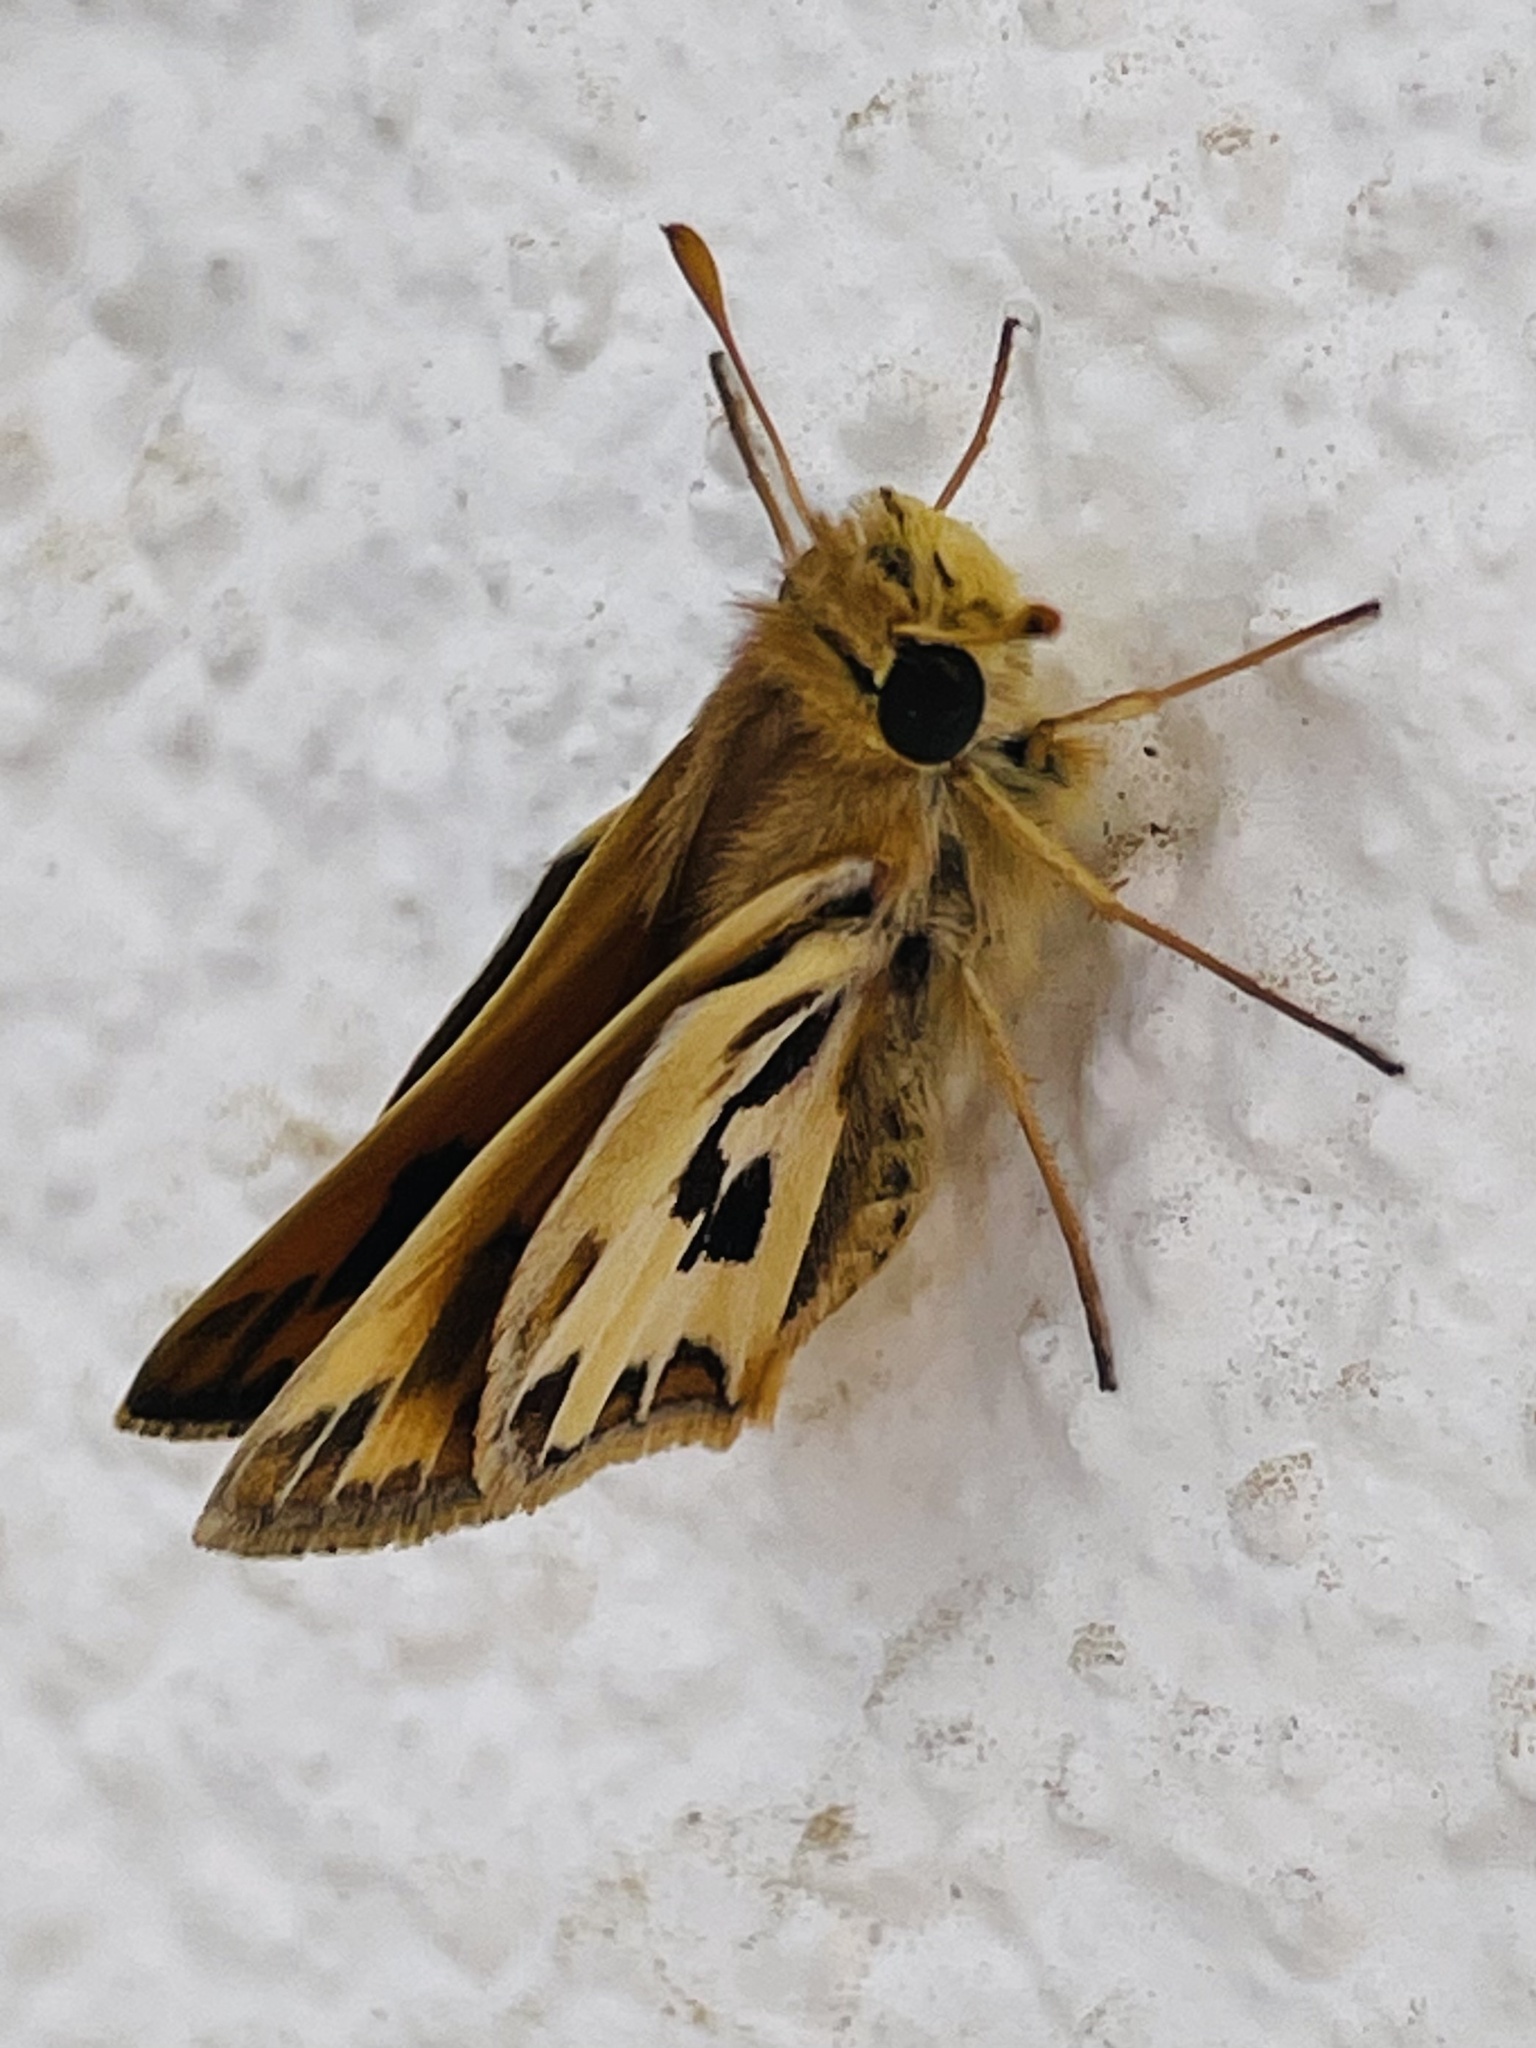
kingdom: Animalia
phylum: Arthropoda
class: Insecta
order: Lepidoptera
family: Hesperiidae
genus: Hylephila
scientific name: Hylephila fasciolata
